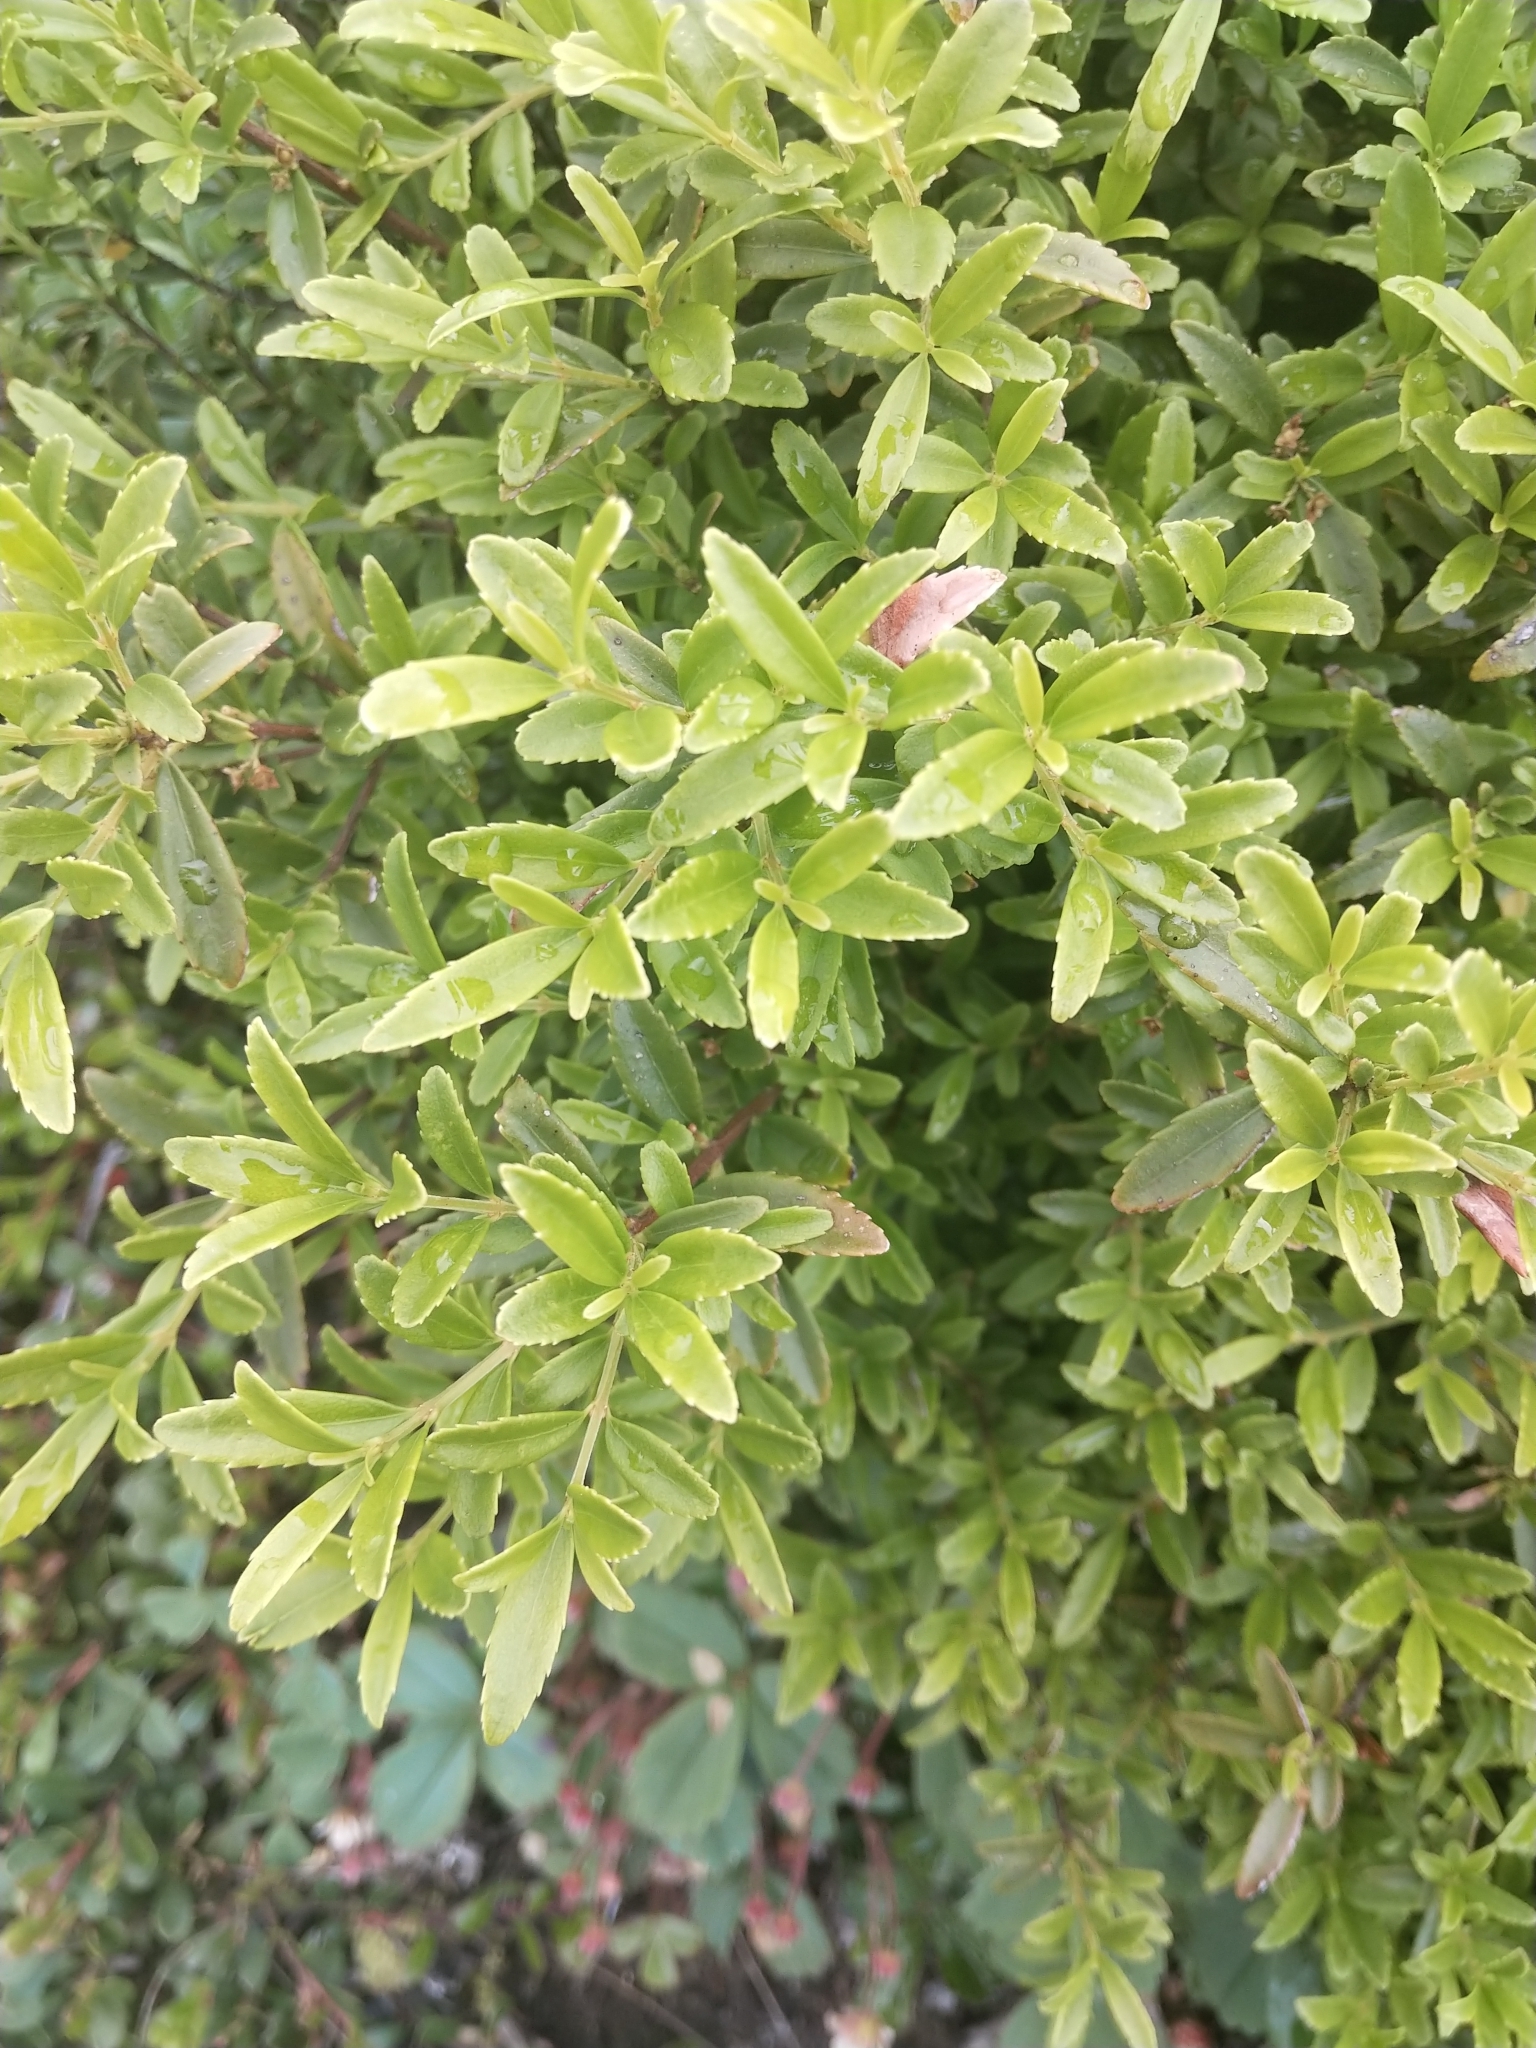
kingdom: Plantae
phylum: Tracheophyta
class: Magnoliopsida
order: Celastrales
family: Celastraceae
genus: Paxistima
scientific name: Paxistima myrsinites
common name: Mountain-lover
